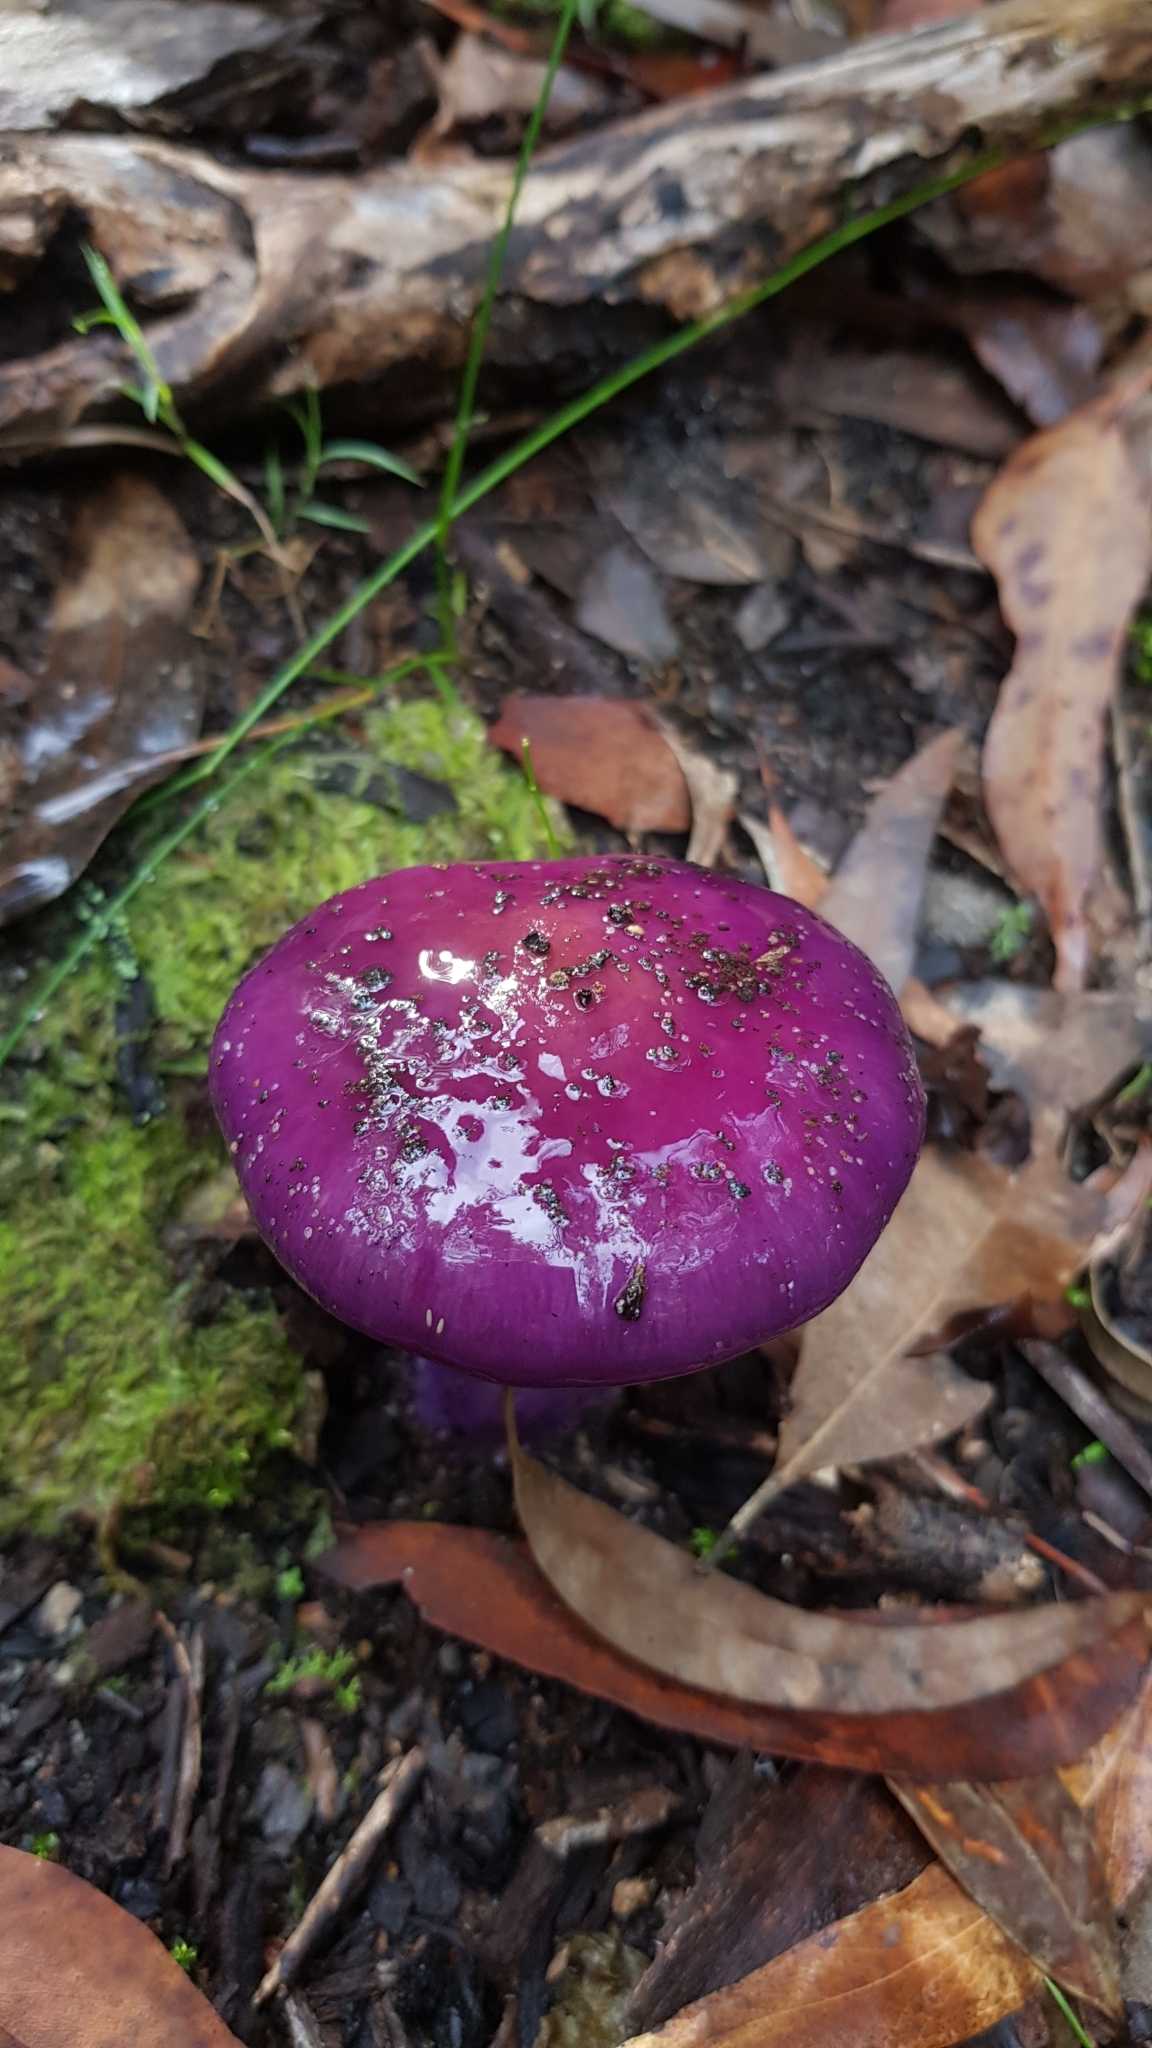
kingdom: Fungi
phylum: Basidiomycota
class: Agaricomycetes
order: Agaricales
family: Cortinariaceae
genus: Cortinarius
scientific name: Cortinarius archeri
